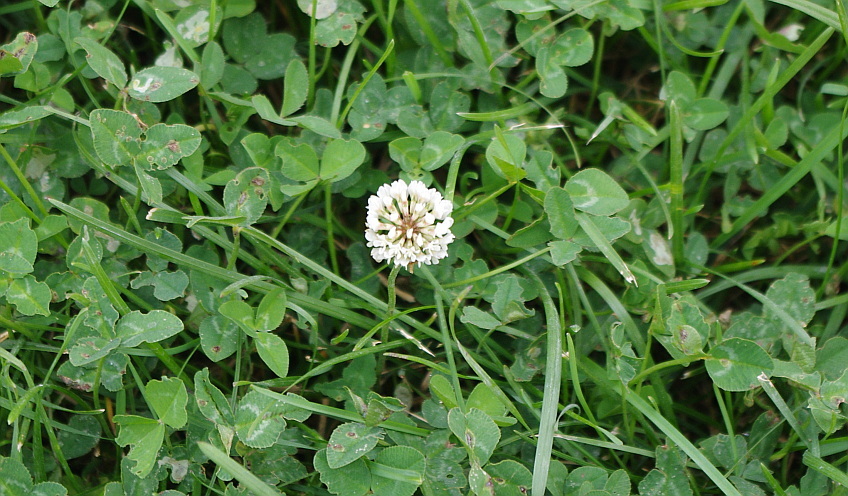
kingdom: Plantae
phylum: Tracheophyta
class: Magnoliopsida
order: Fabales
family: Fabaceae
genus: Trifolium
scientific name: Trifolium repens
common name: White clover
